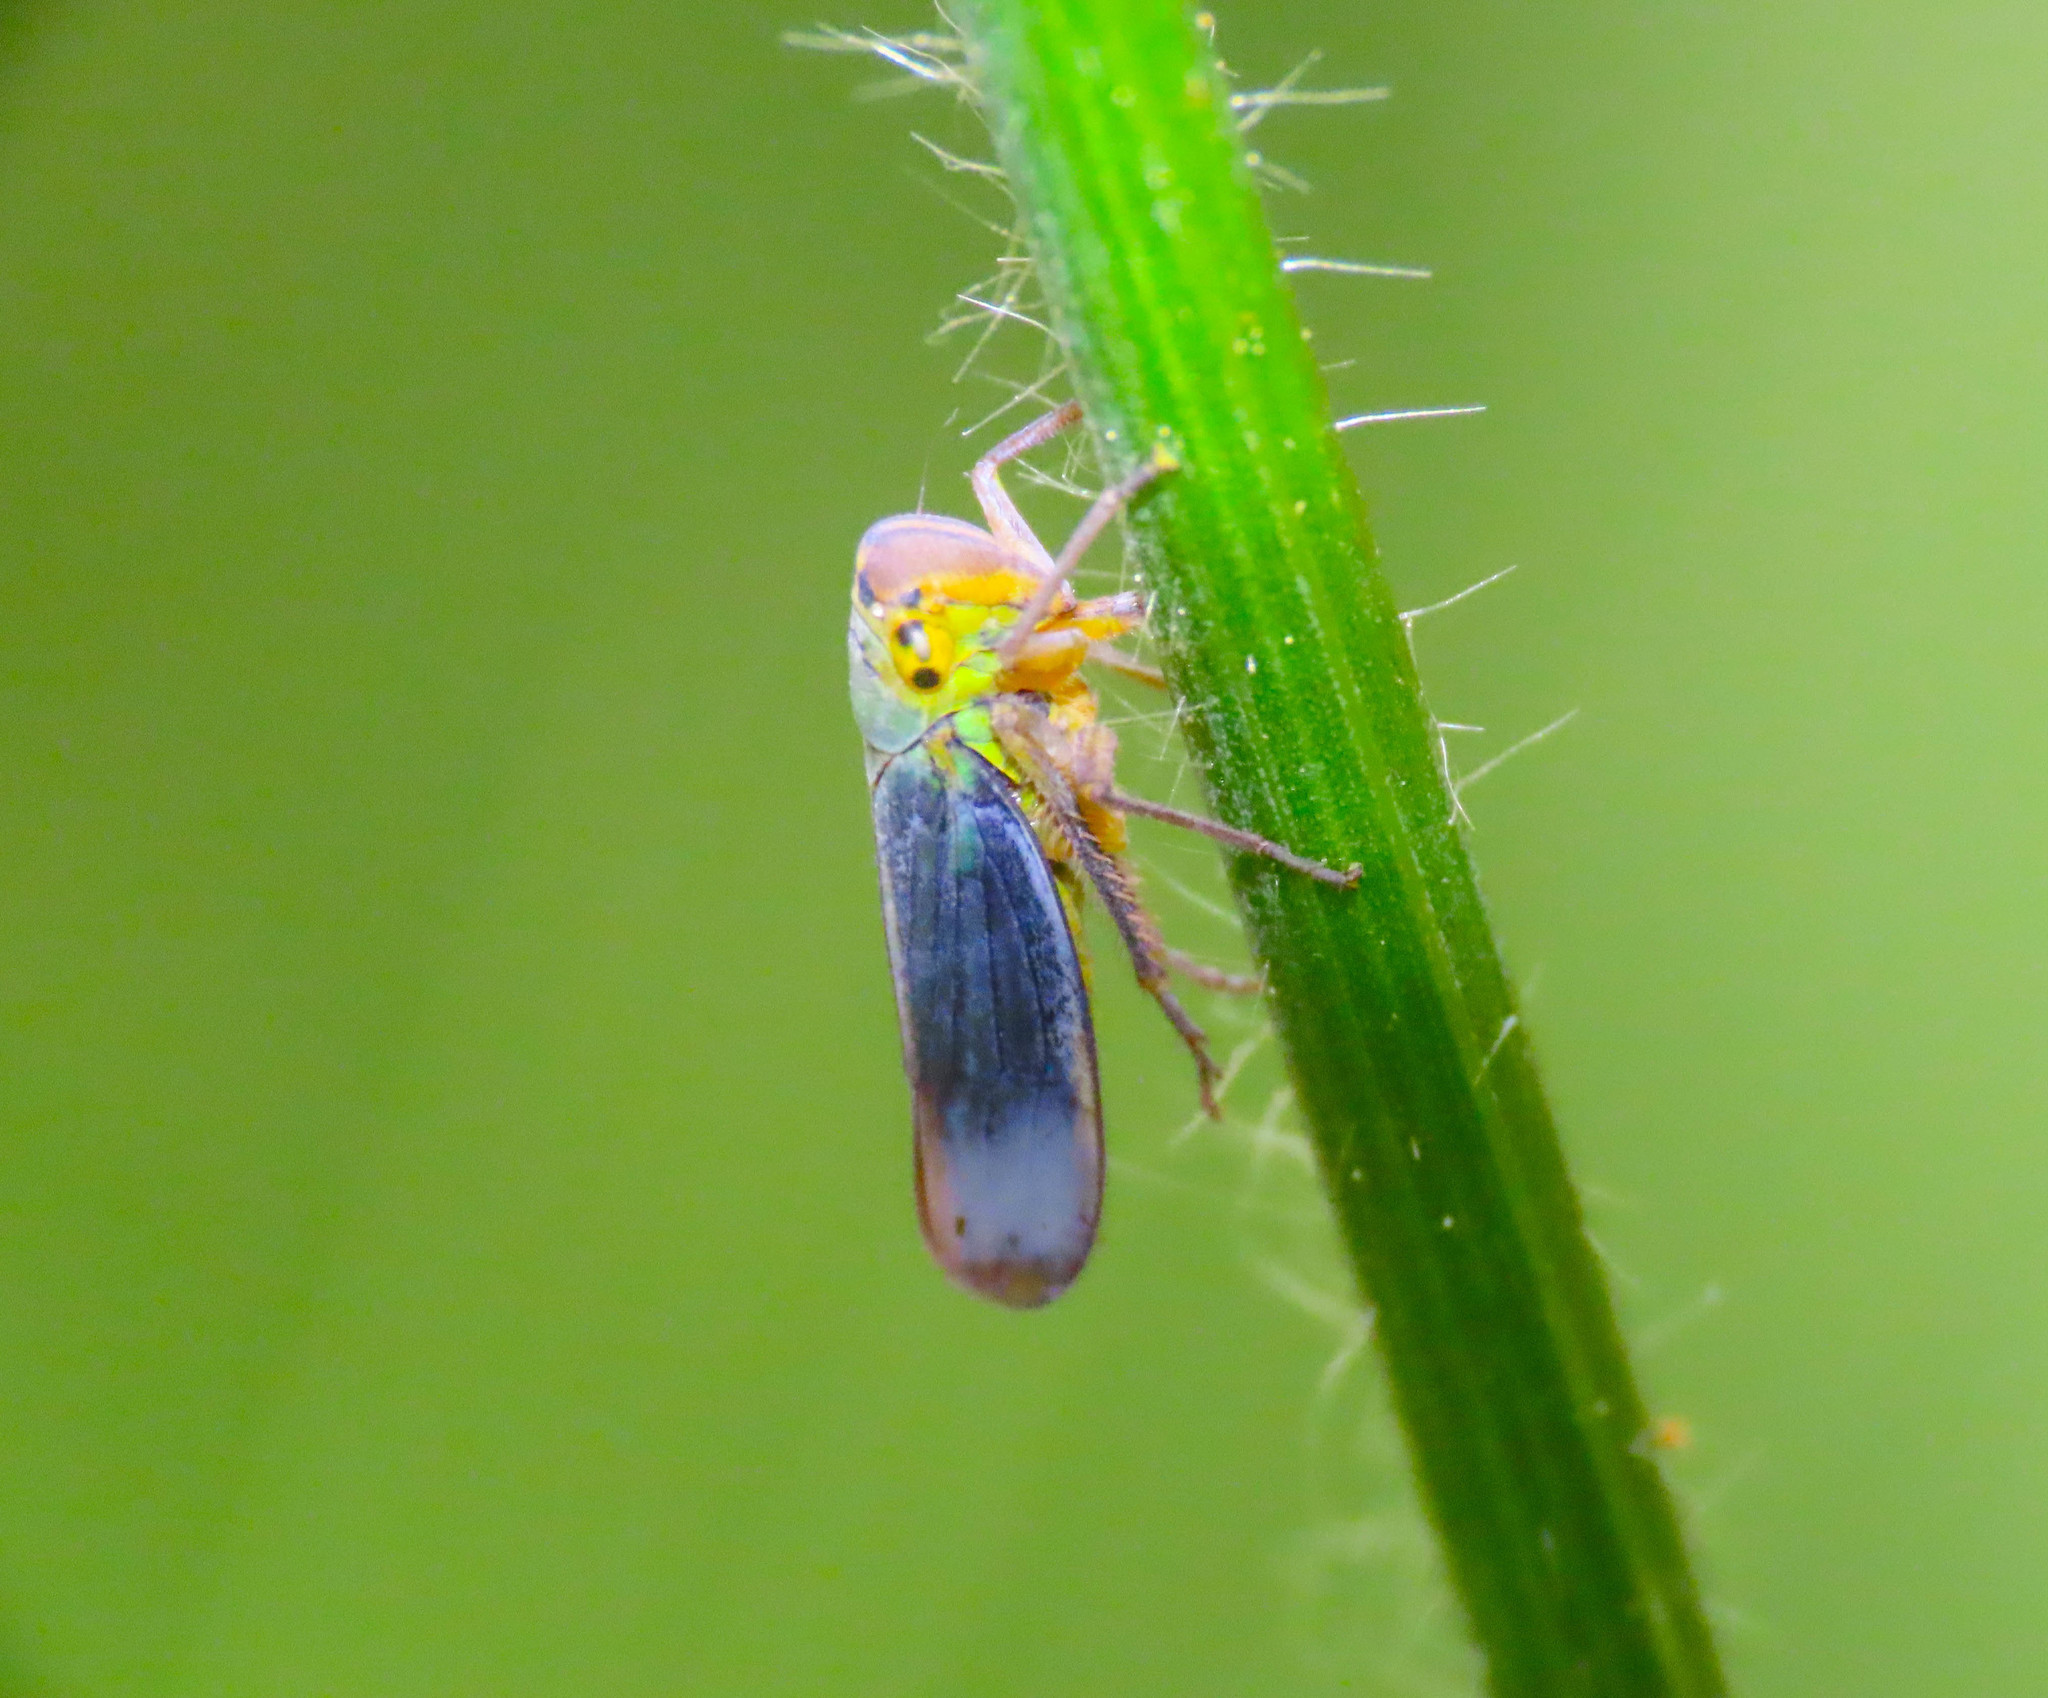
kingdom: Animalia
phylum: Arthropoda
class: Insecta
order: Hemiptera
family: Cicadellidae
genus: Cicadella
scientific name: Cicadella viridis
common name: Leafhopper
